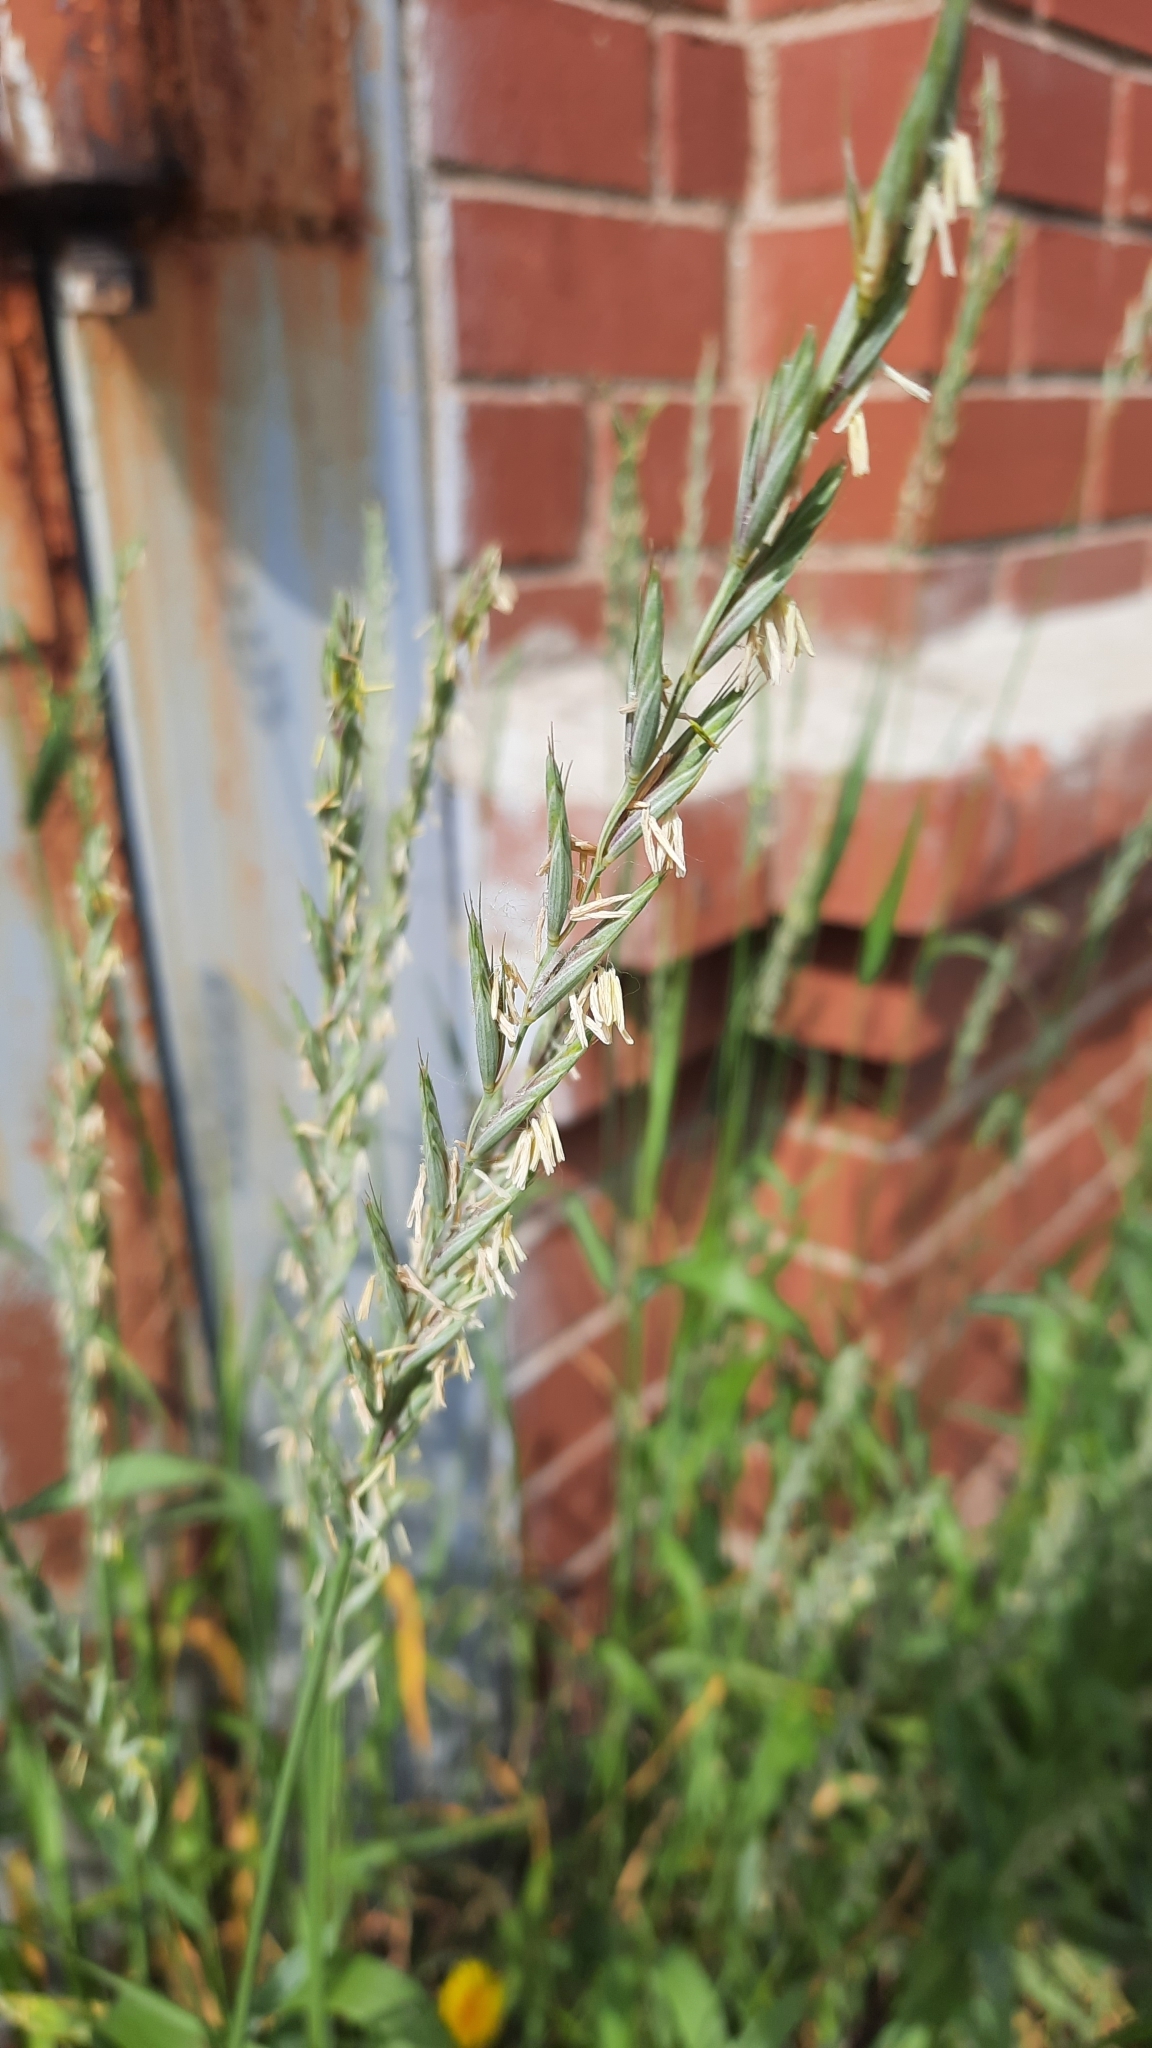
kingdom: Plantae
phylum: Tracheophyta
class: Liliopsida
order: Poales
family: Poaceae
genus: Elymus
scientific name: Elymus repens
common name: Quackgrass
